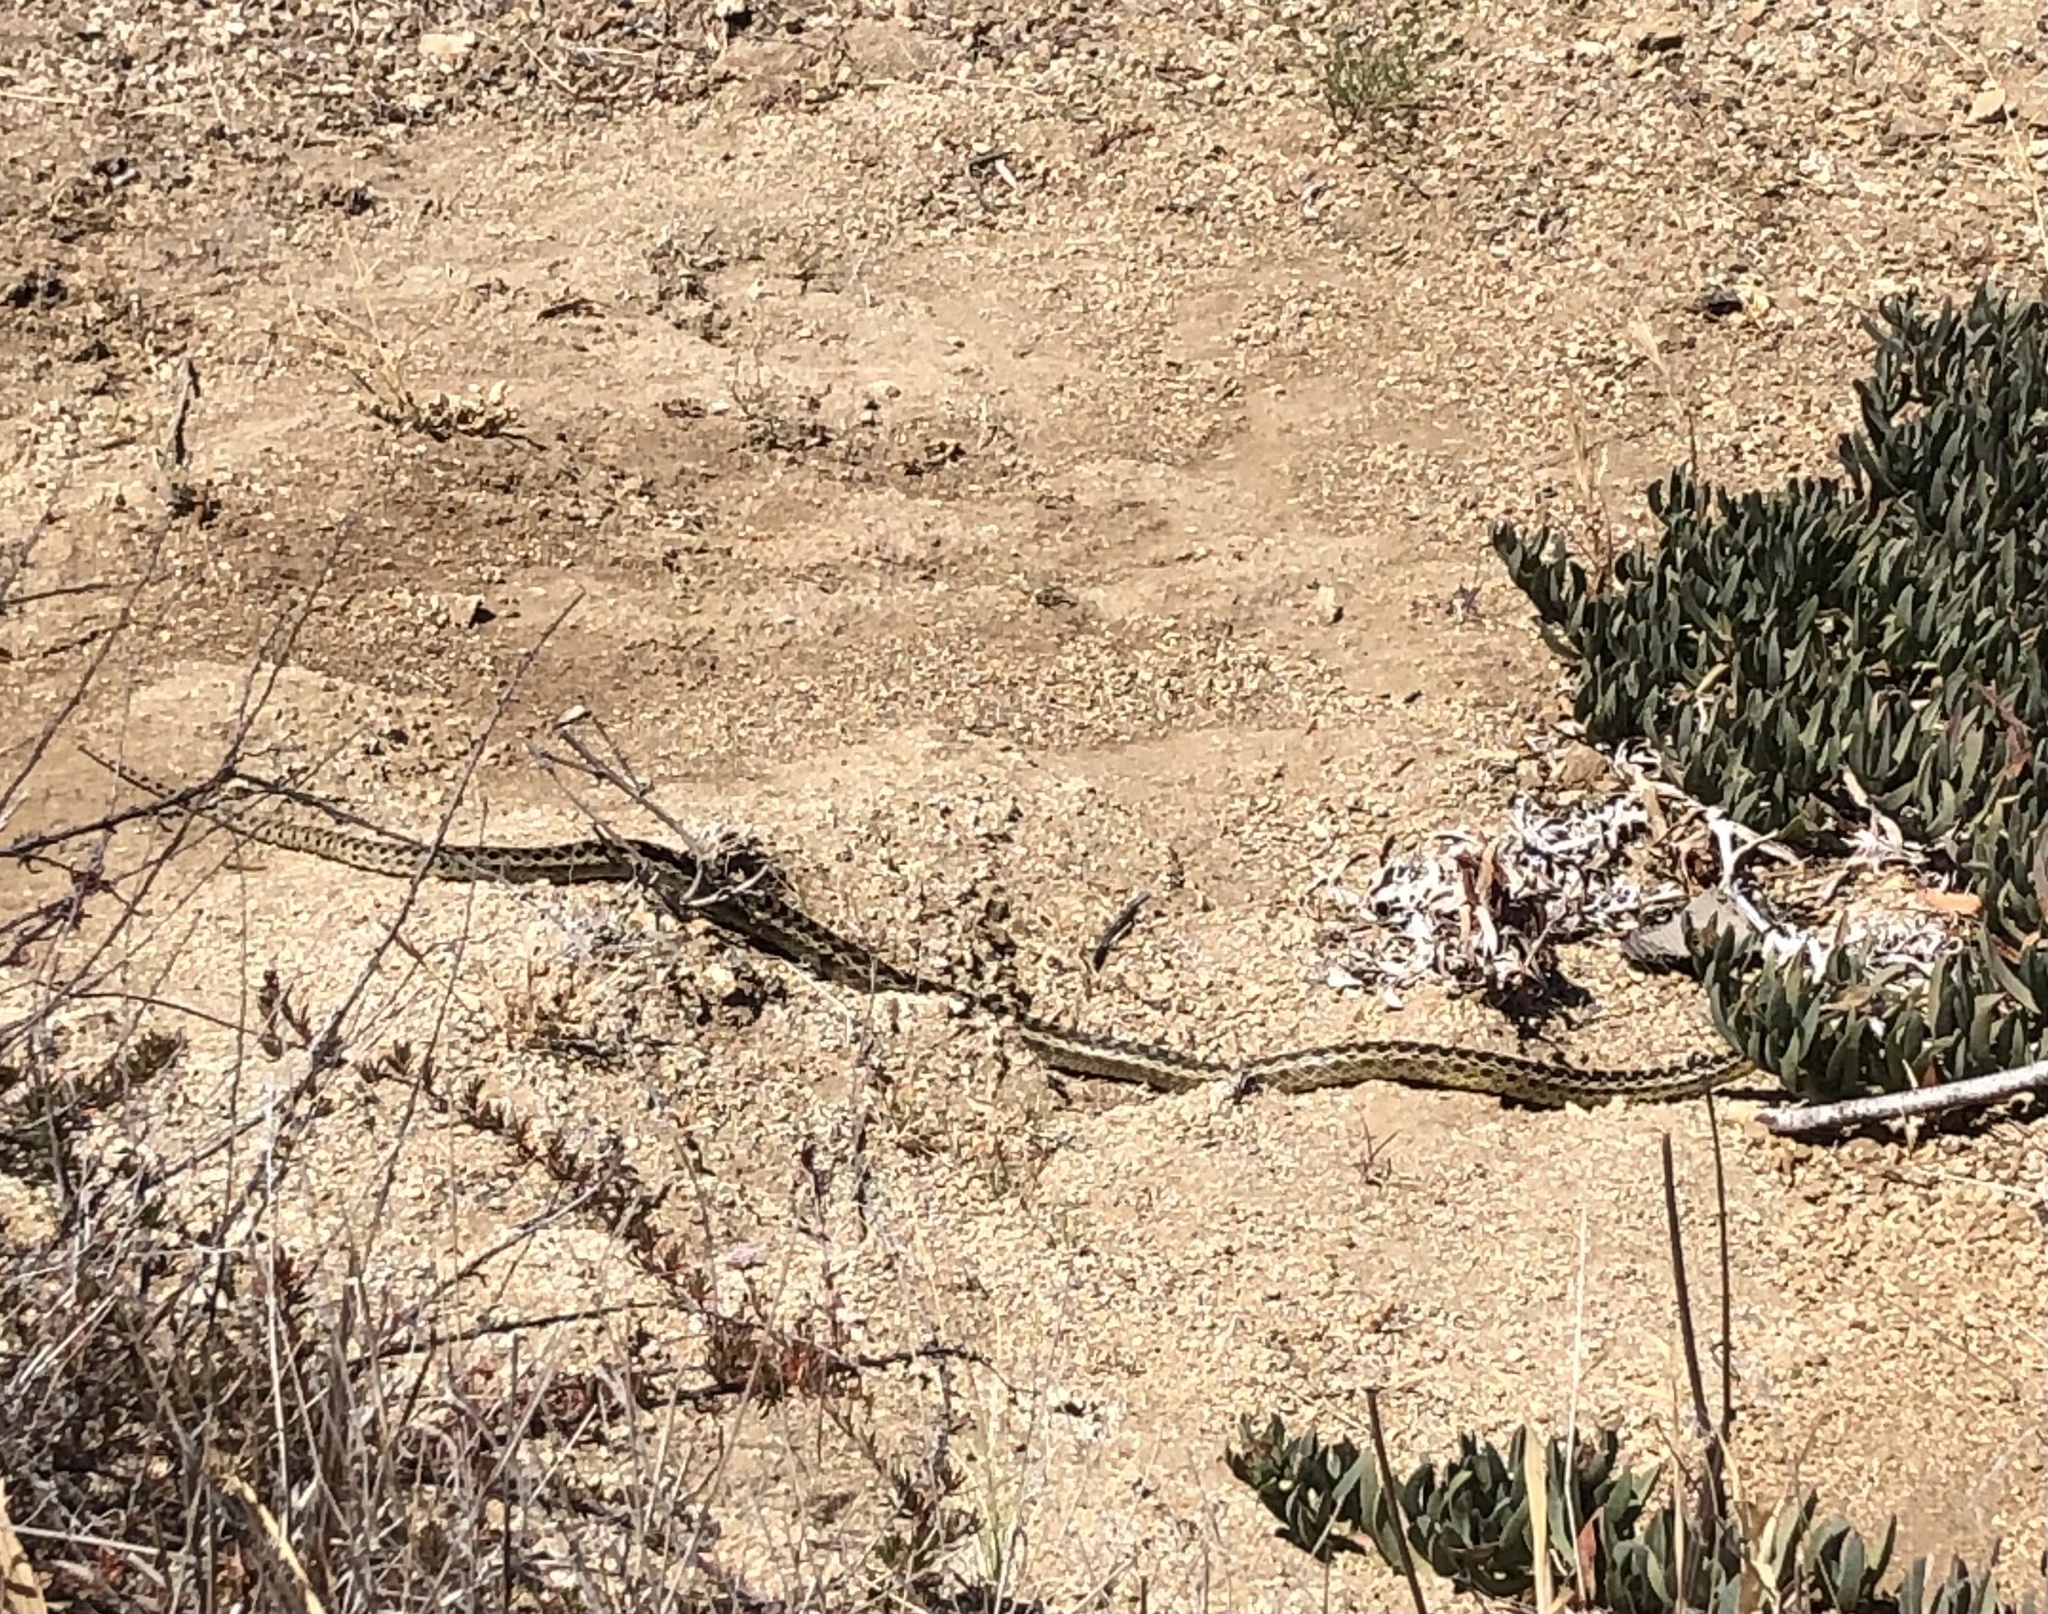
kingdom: Animalia
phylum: Chordata
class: Squamata
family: Colubridae
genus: Pituophis
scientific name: Pituophis catenifer
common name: Gopher snake
